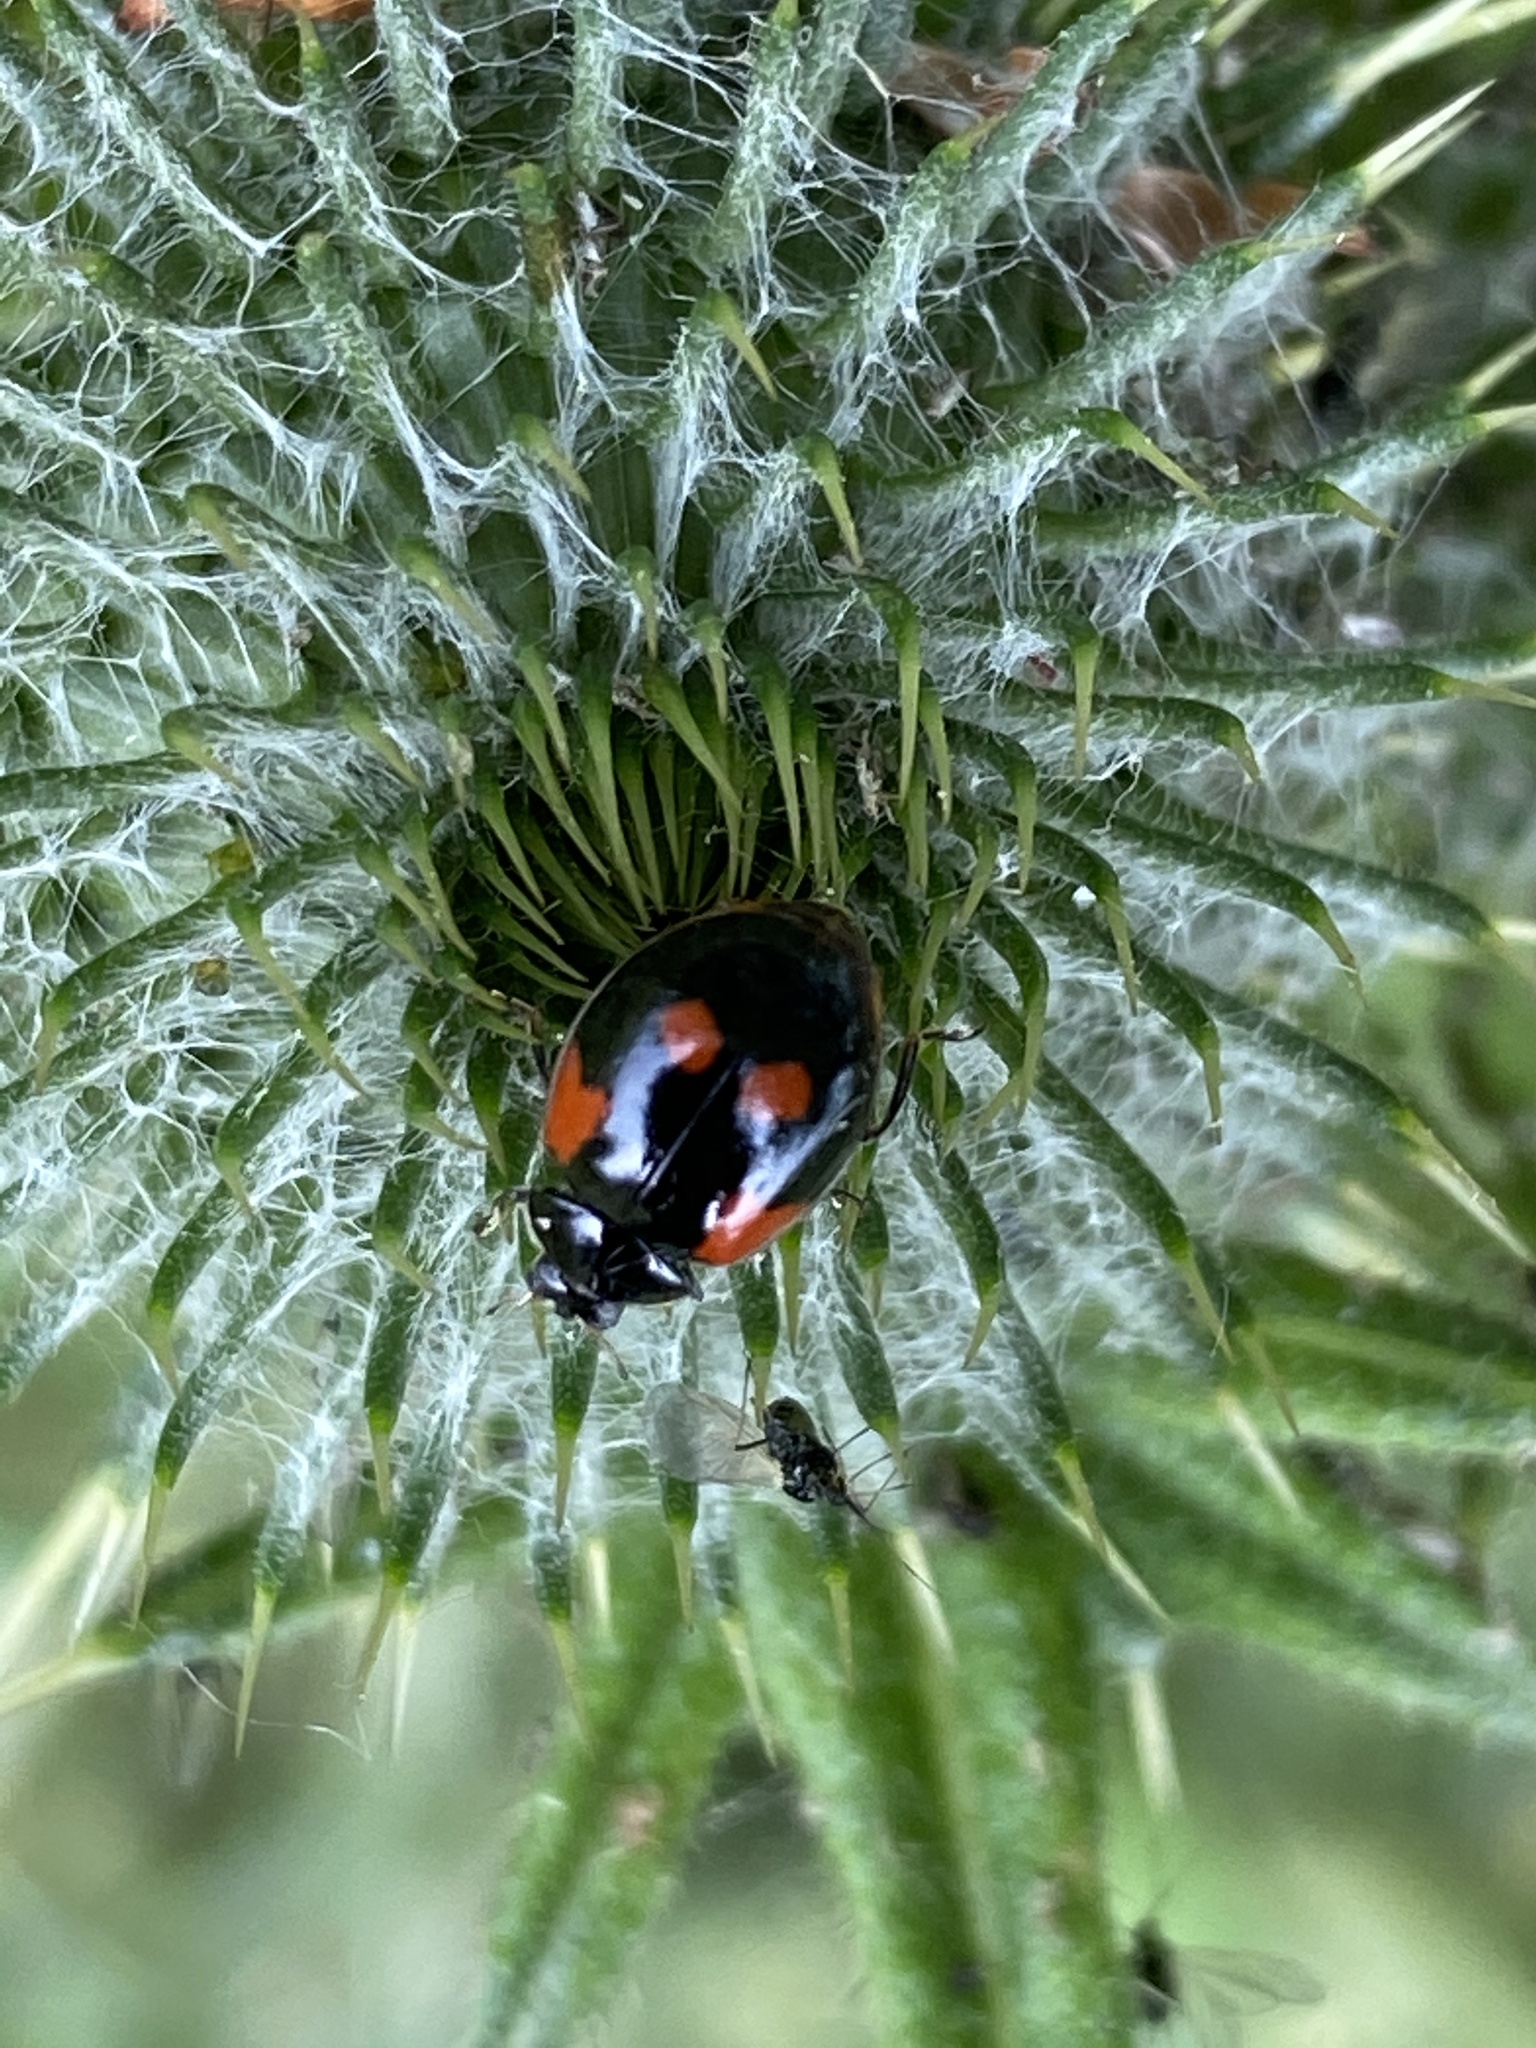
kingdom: Animalia
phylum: Arthropoda
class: Insecta
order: Coleoptera
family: Coccinellidae
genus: Adalia
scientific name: Adalia bipunctata
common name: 2-spot ladybird
